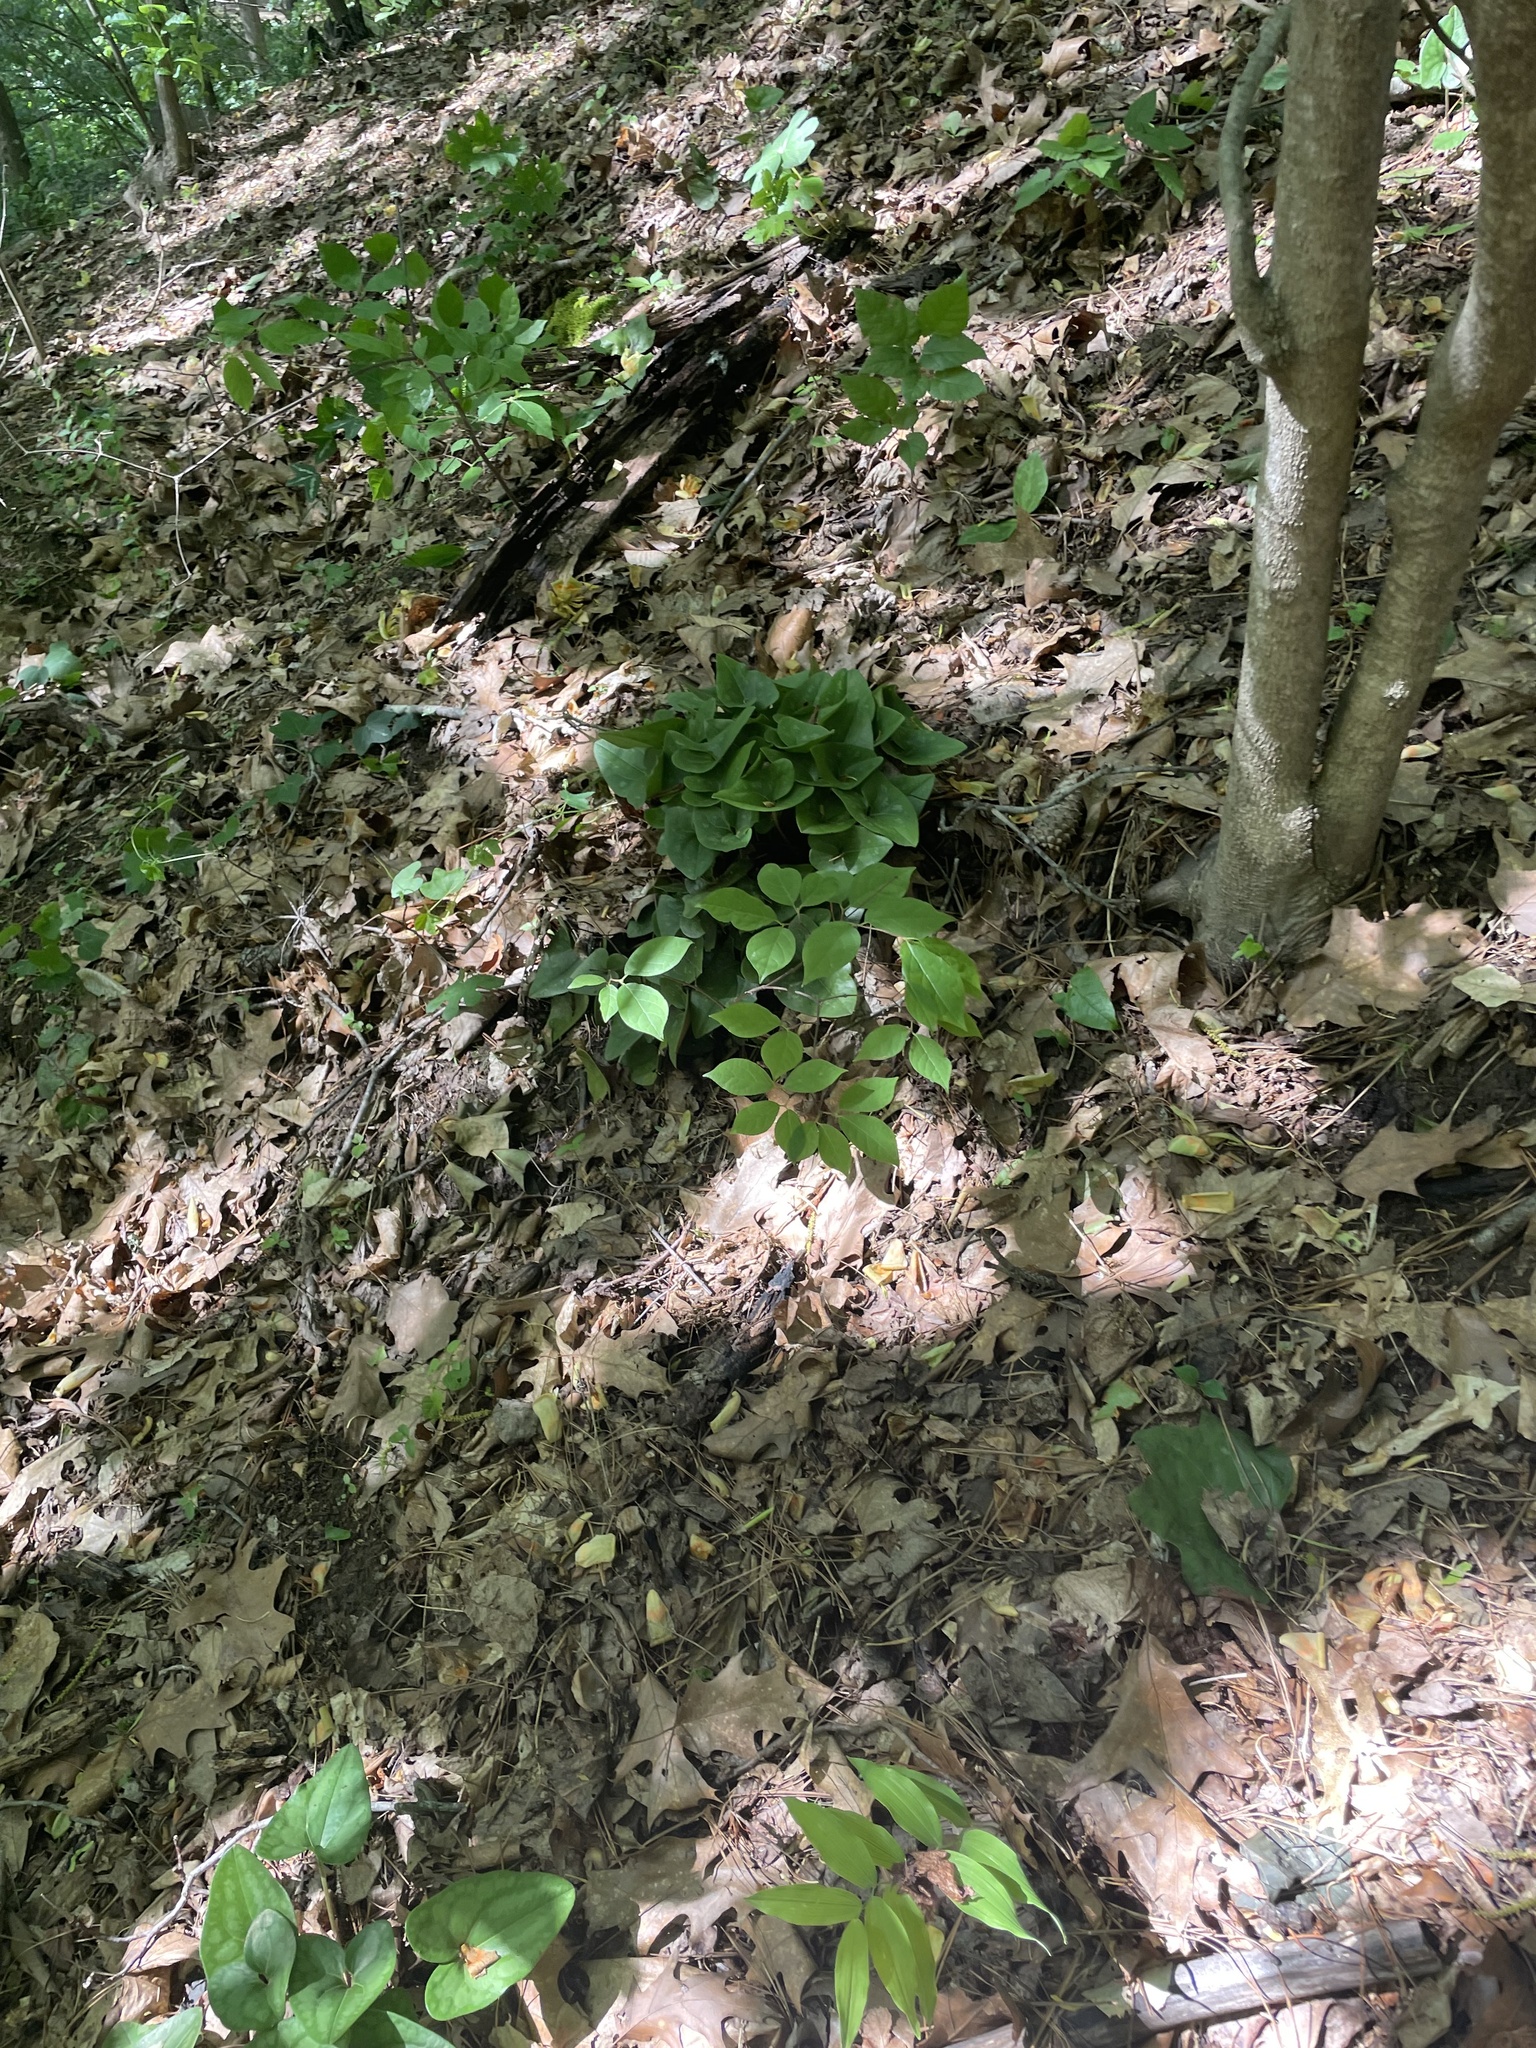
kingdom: Plantae
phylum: Tracheophyta
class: Magnoliopsida
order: Piperales
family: Aristolochiaceae
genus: Hexastylis
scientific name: Hexastylis arifolia
